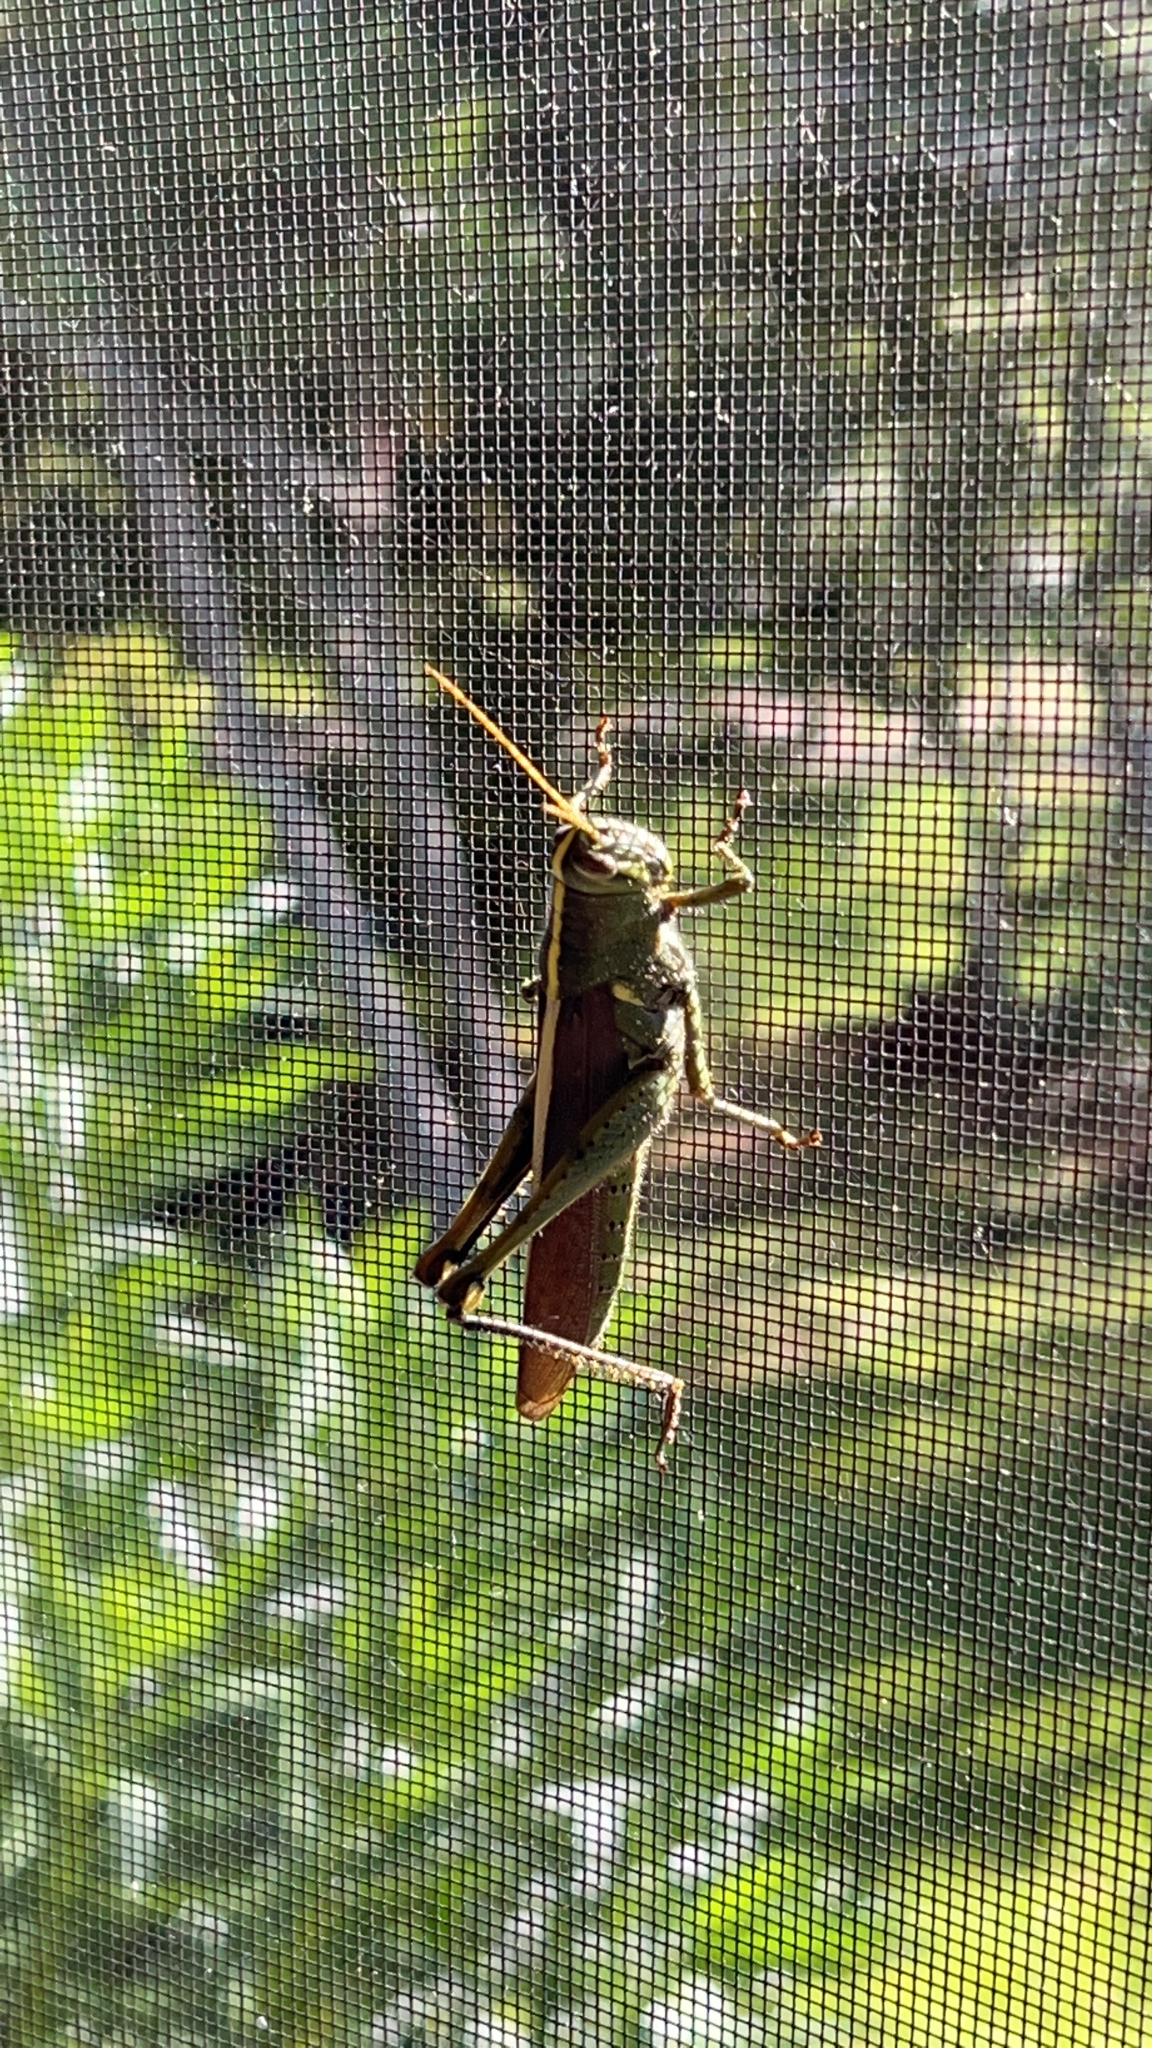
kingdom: Animalia
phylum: Arthropoda
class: Insecta
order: Orthoptera
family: Acrididae
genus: Schistocerca
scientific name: Schistocerca obscura
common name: Obscure bird grasshopper
